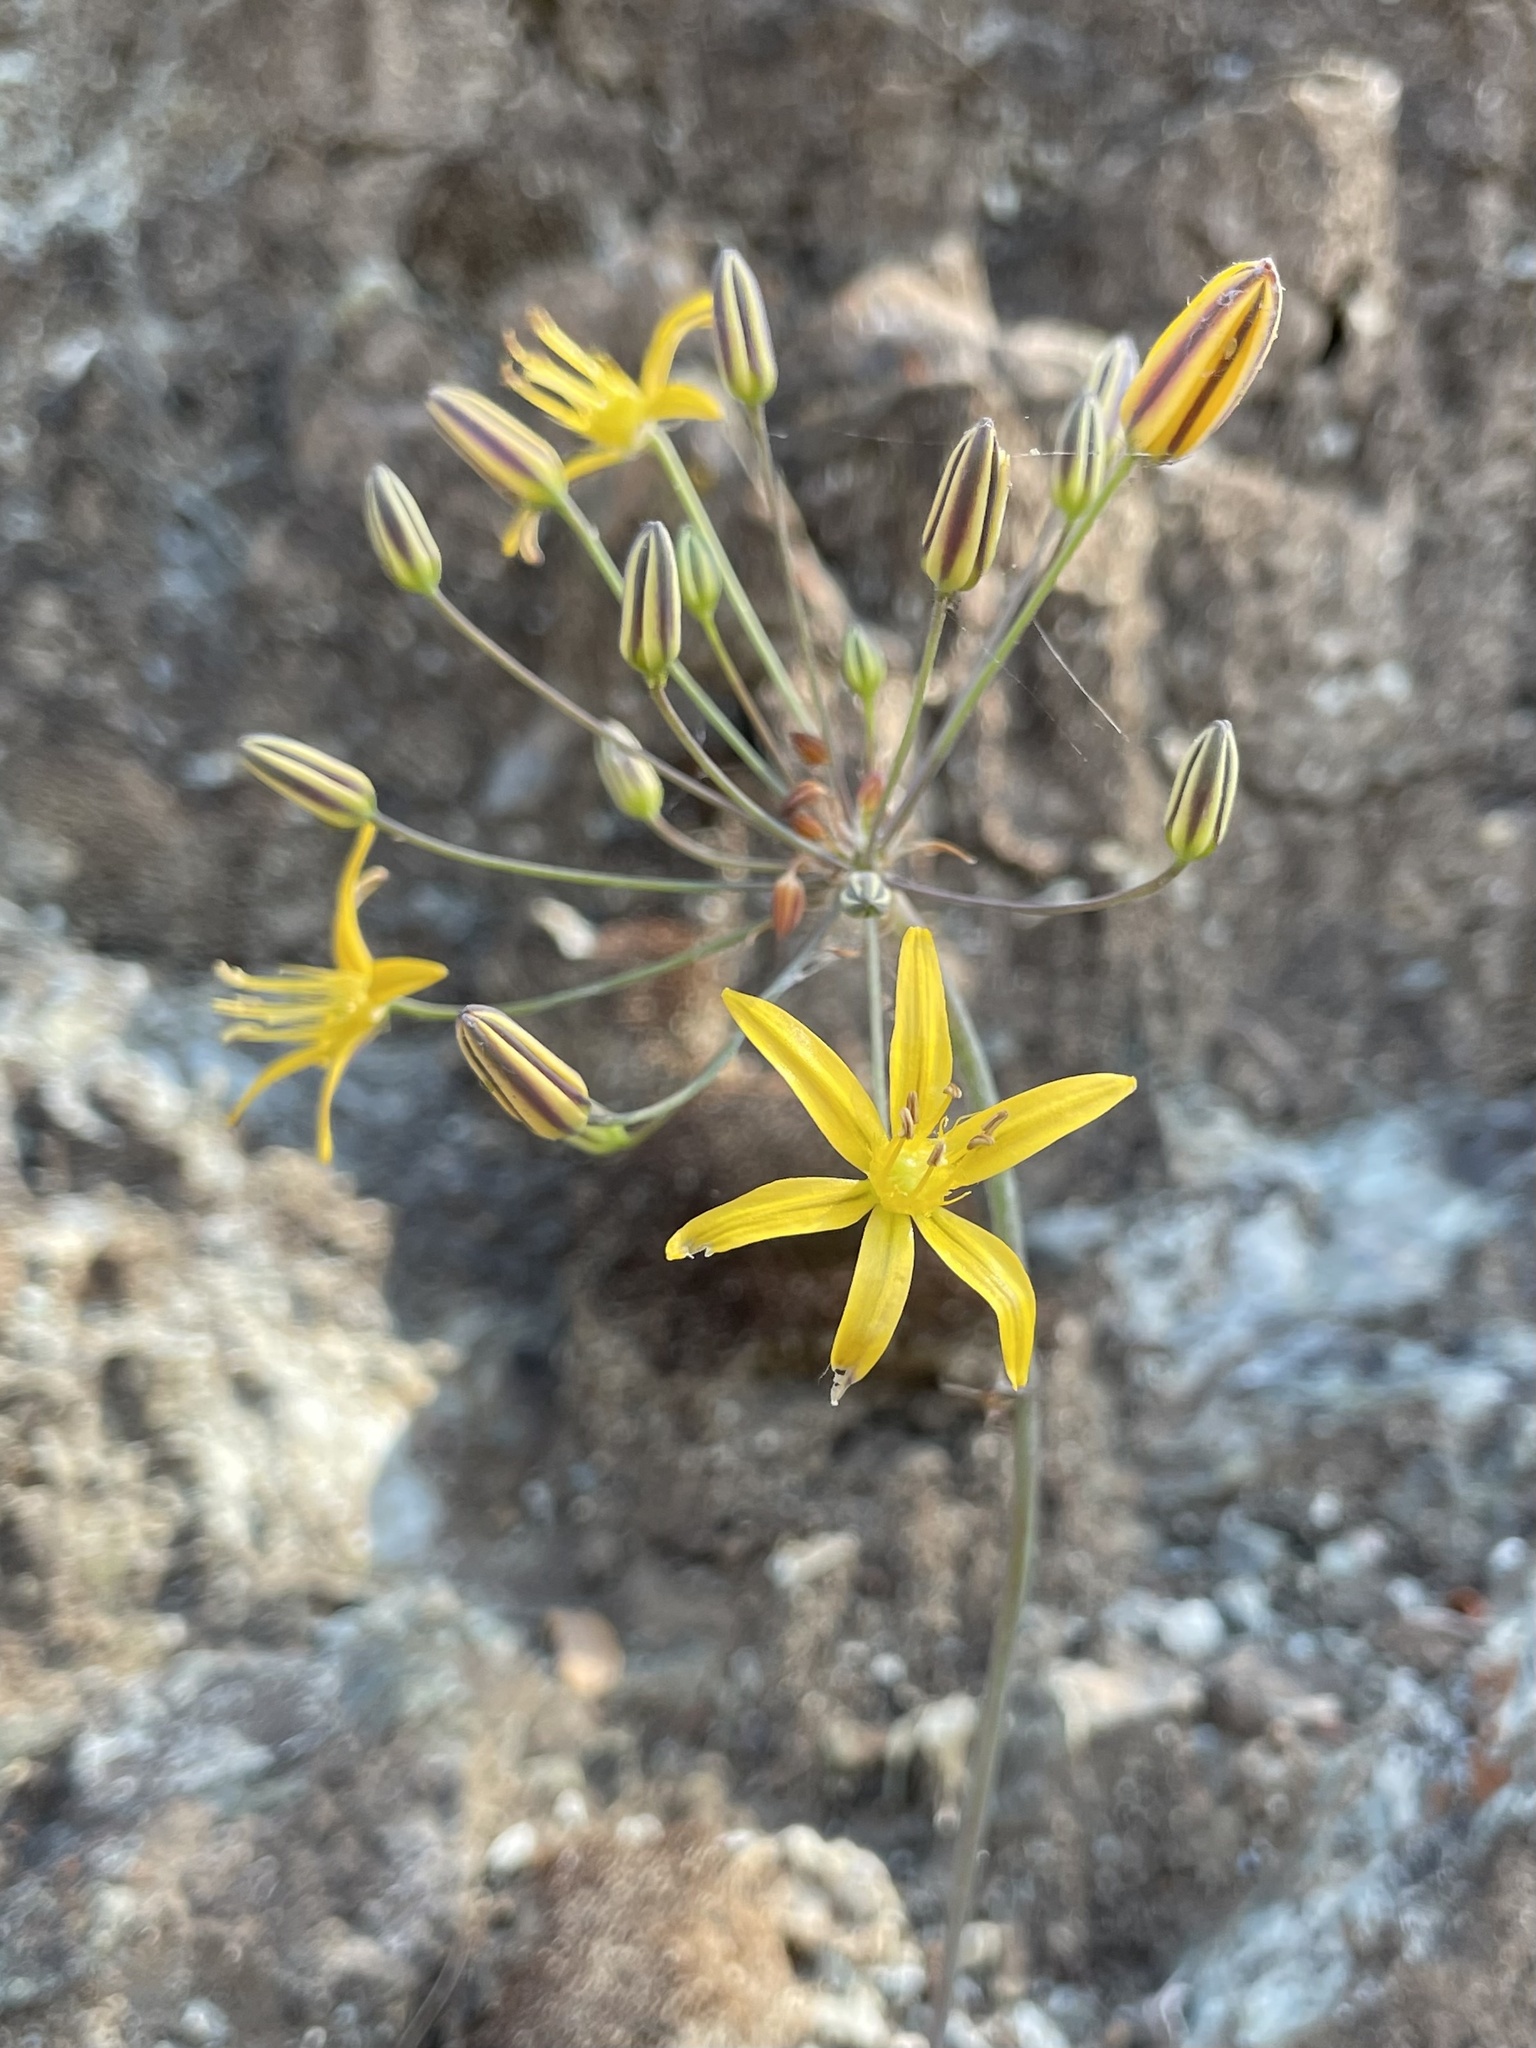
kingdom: Plantae
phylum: Tracheophyta
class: Liliopsida
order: Asparagales
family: Asparagaceae
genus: Bloomeria
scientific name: Bloomeria crocea
